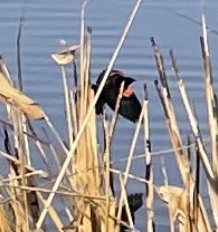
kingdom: Animalia
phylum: Chordata
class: Aves
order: Passeriformes
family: Icteridae
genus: Agelaius
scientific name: Agelaius phoeniceus
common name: Red-winged blackbird
